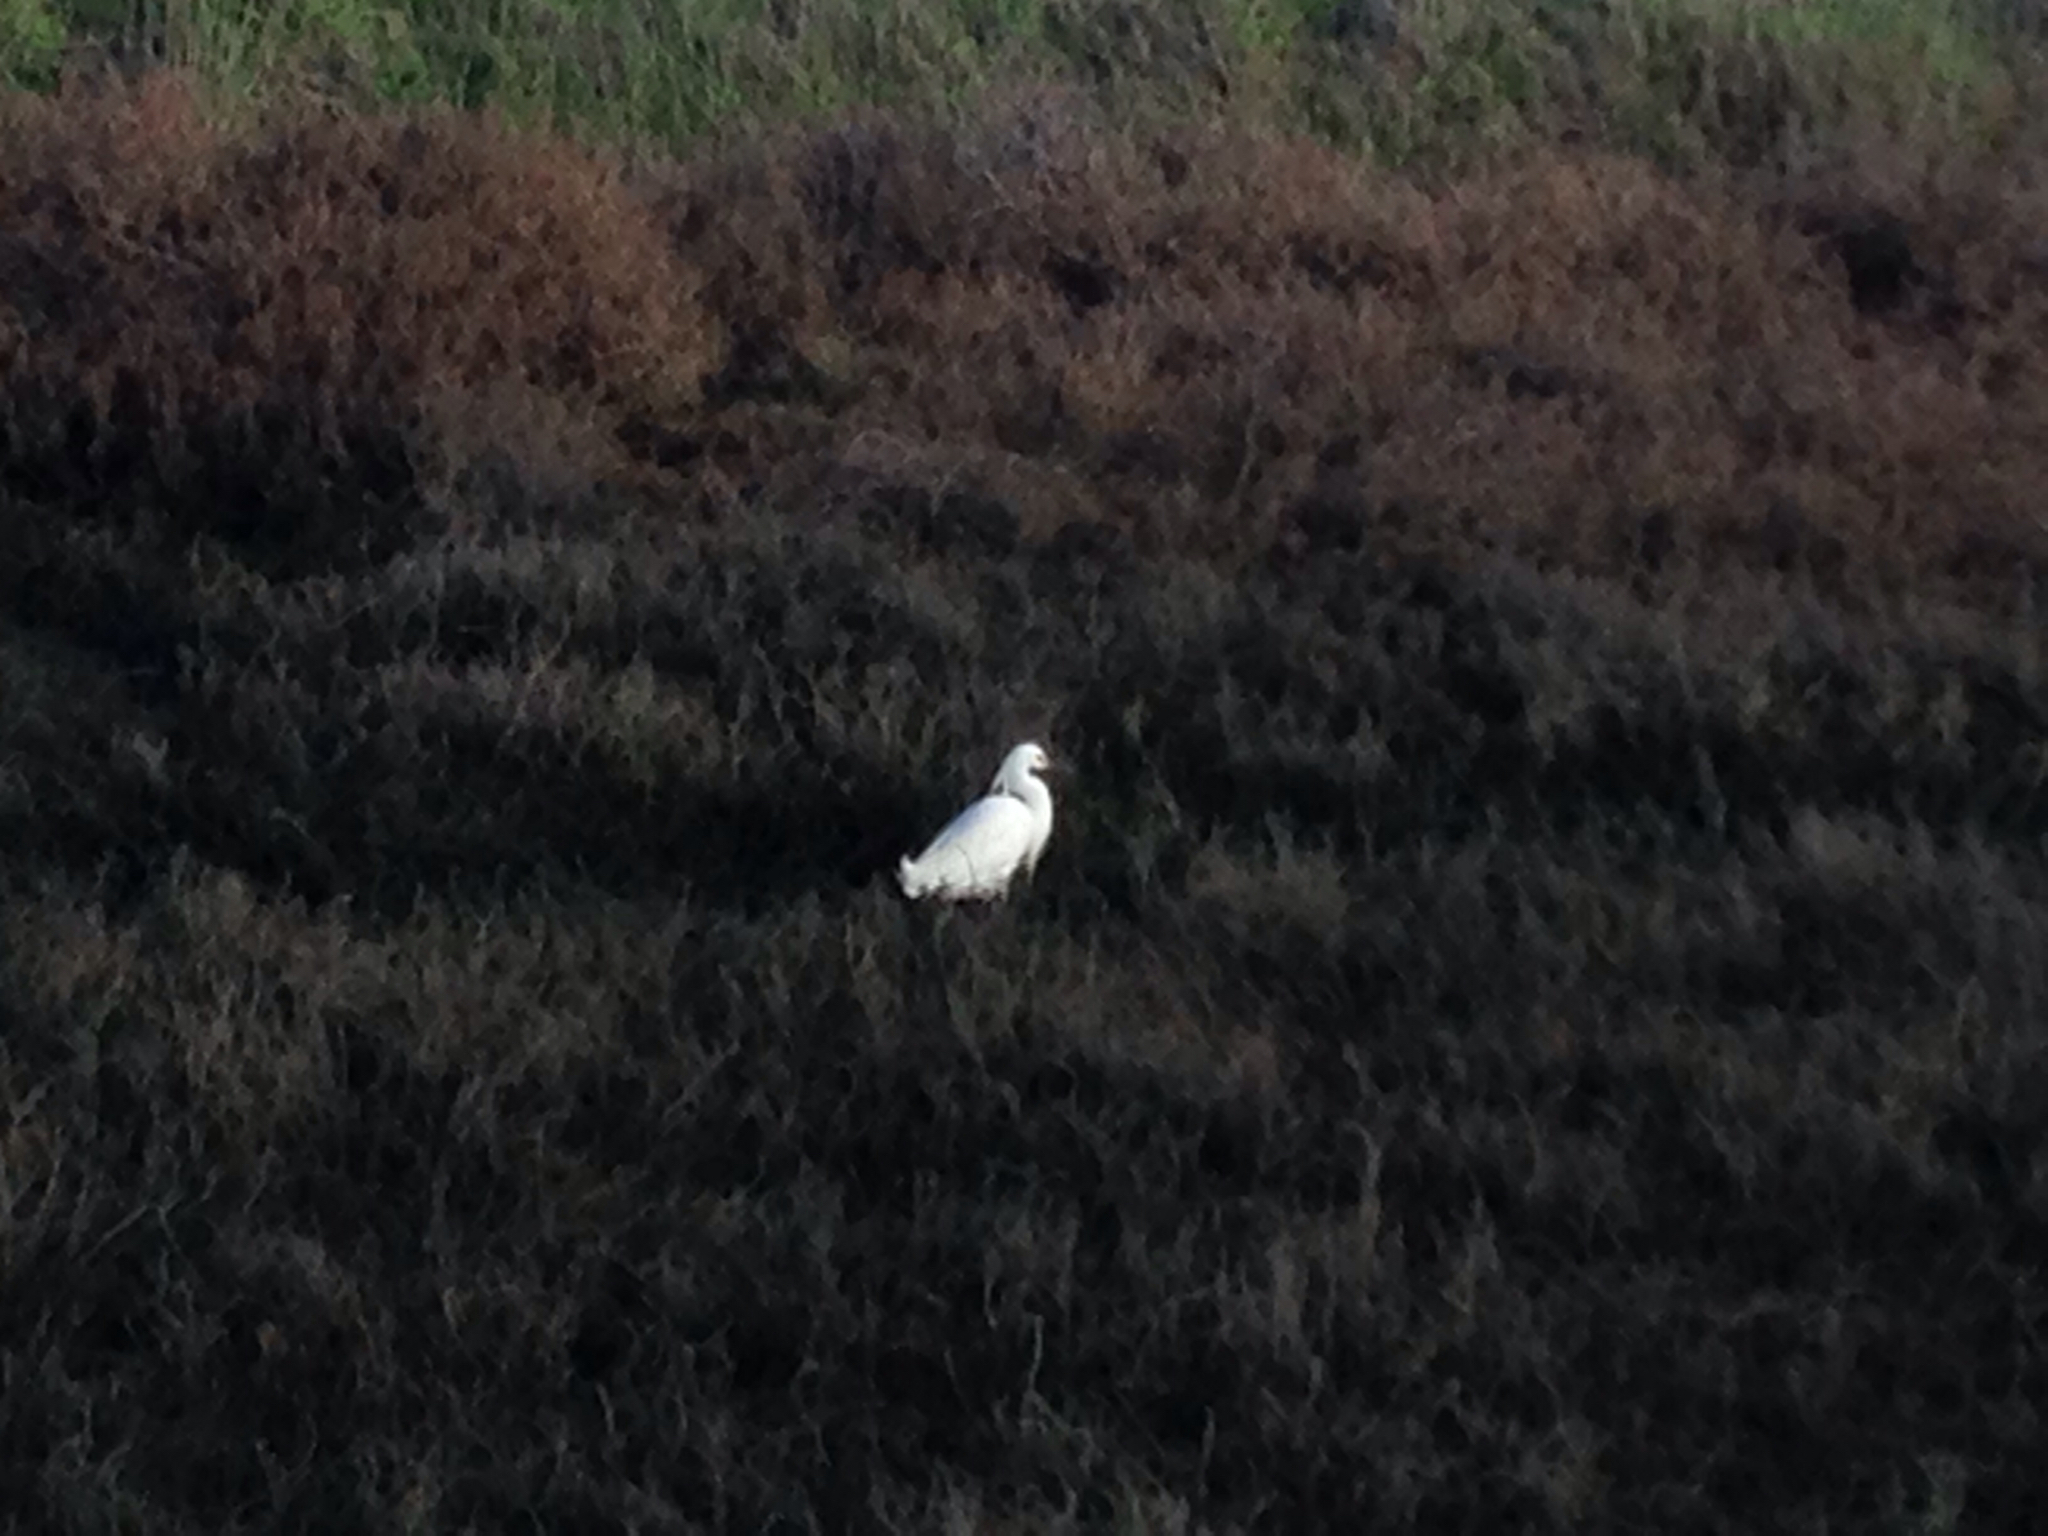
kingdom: Animalia
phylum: Chordata
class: Aves
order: Pelecaniformes
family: Ardeidae
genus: Egretta
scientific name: Egretta thula
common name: Snowy egret
